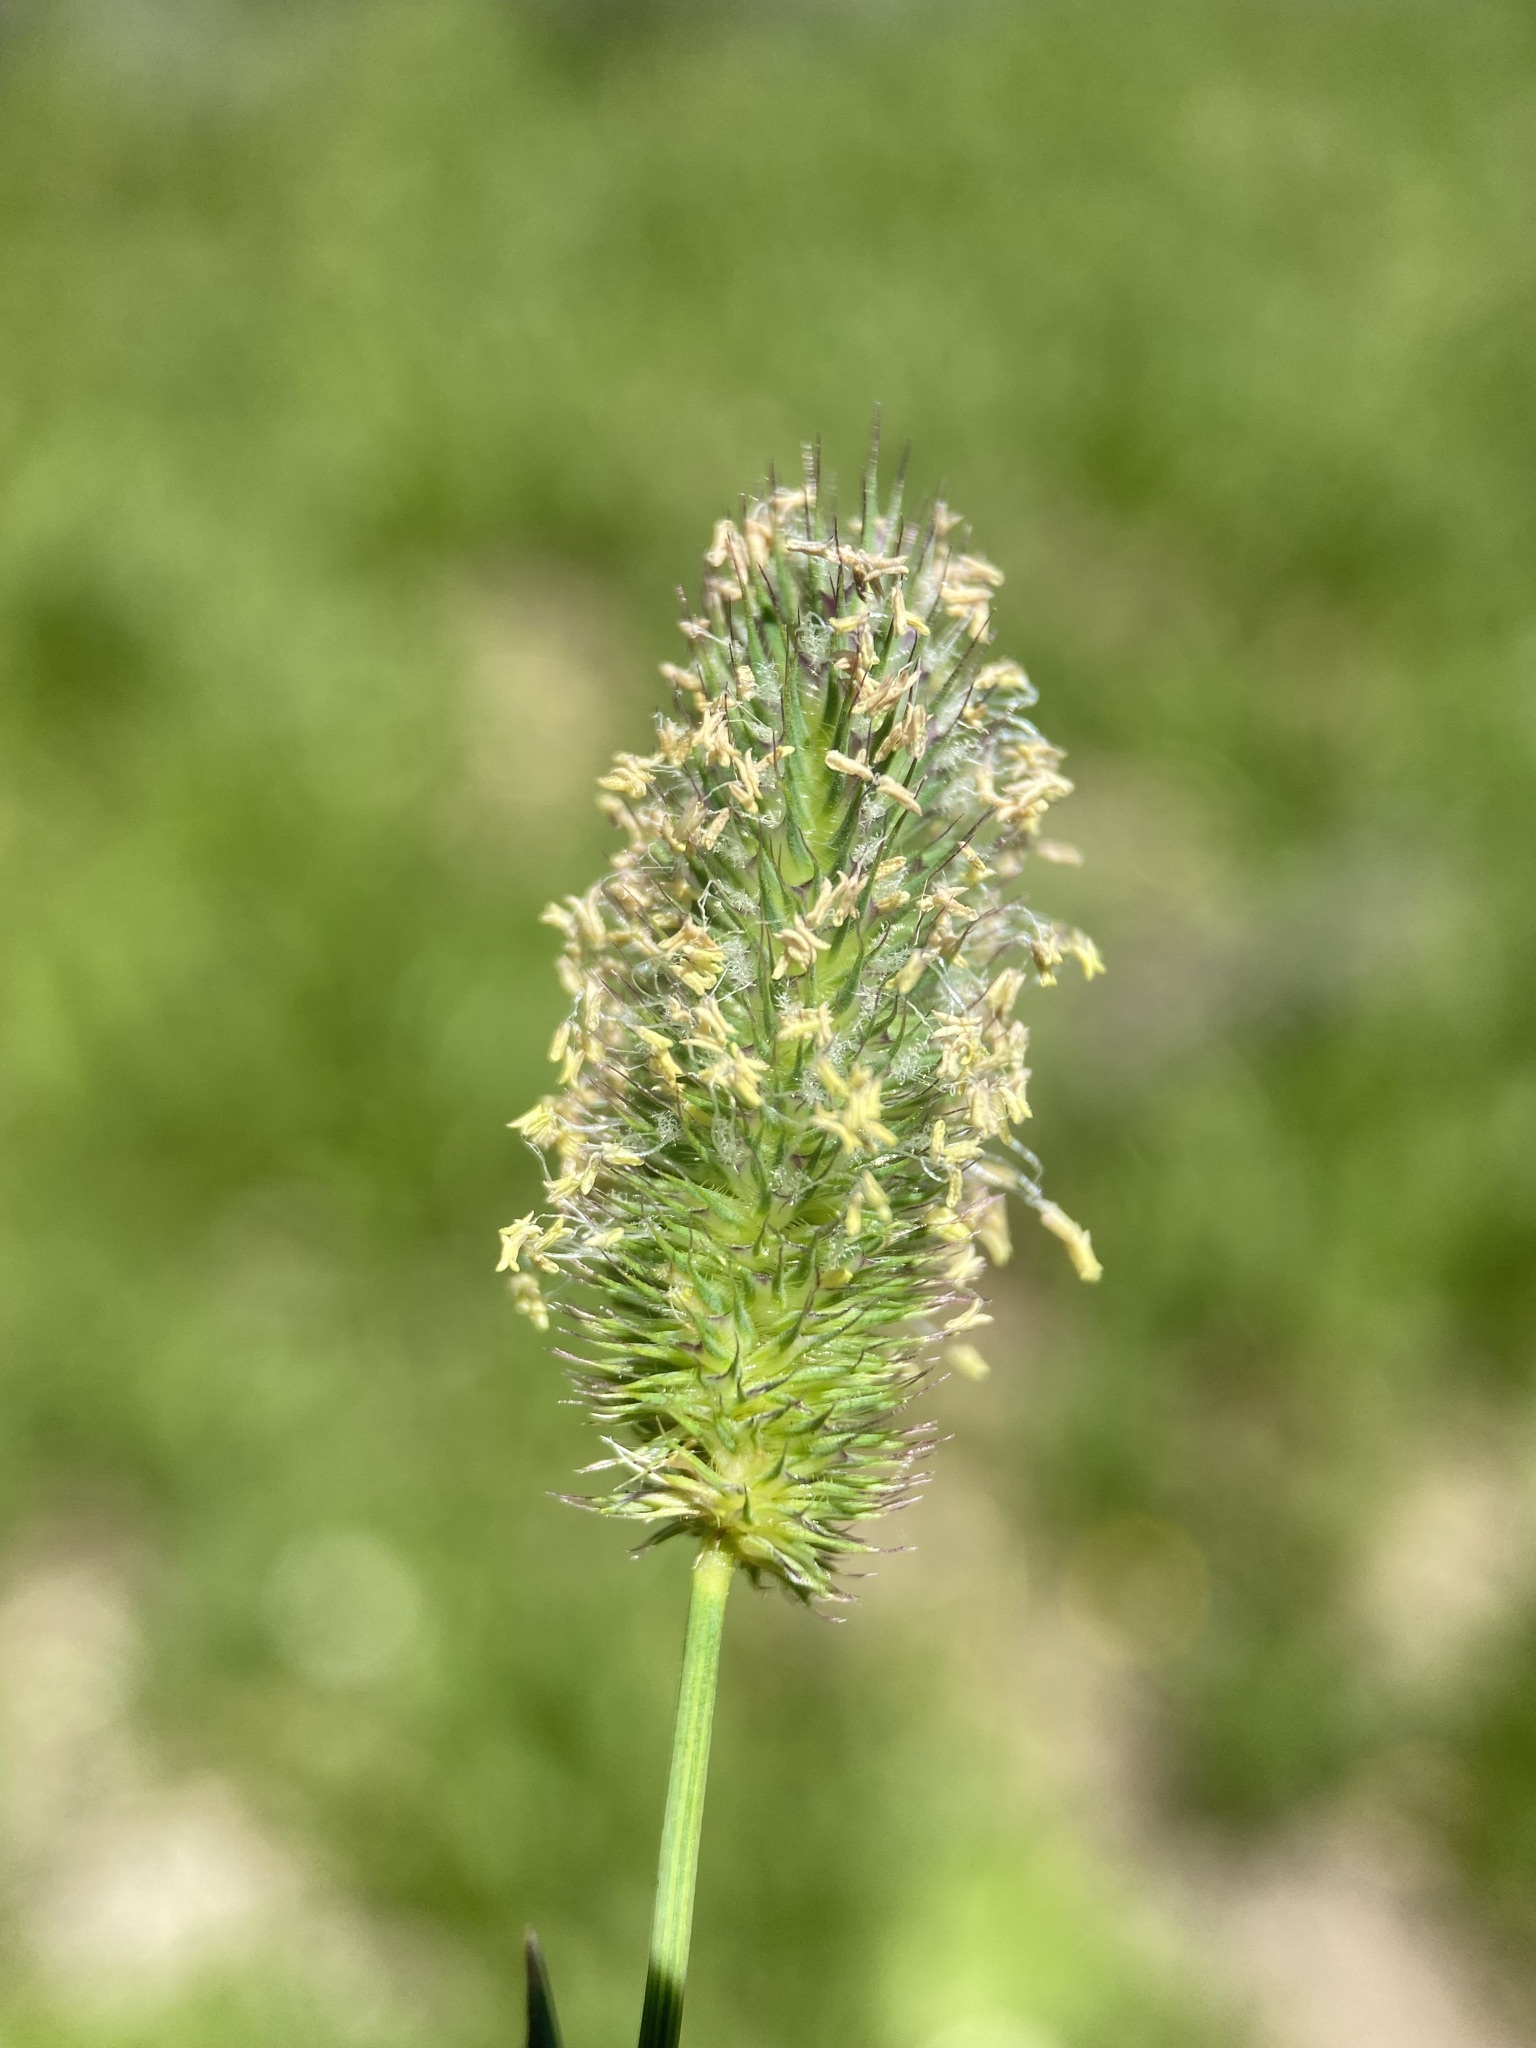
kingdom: Plantae
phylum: Tracheophyta
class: Liliopsida
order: Poales
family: Poaceae
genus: Phleum
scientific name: Phleum alpinum
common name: Alpine cat's-tail
